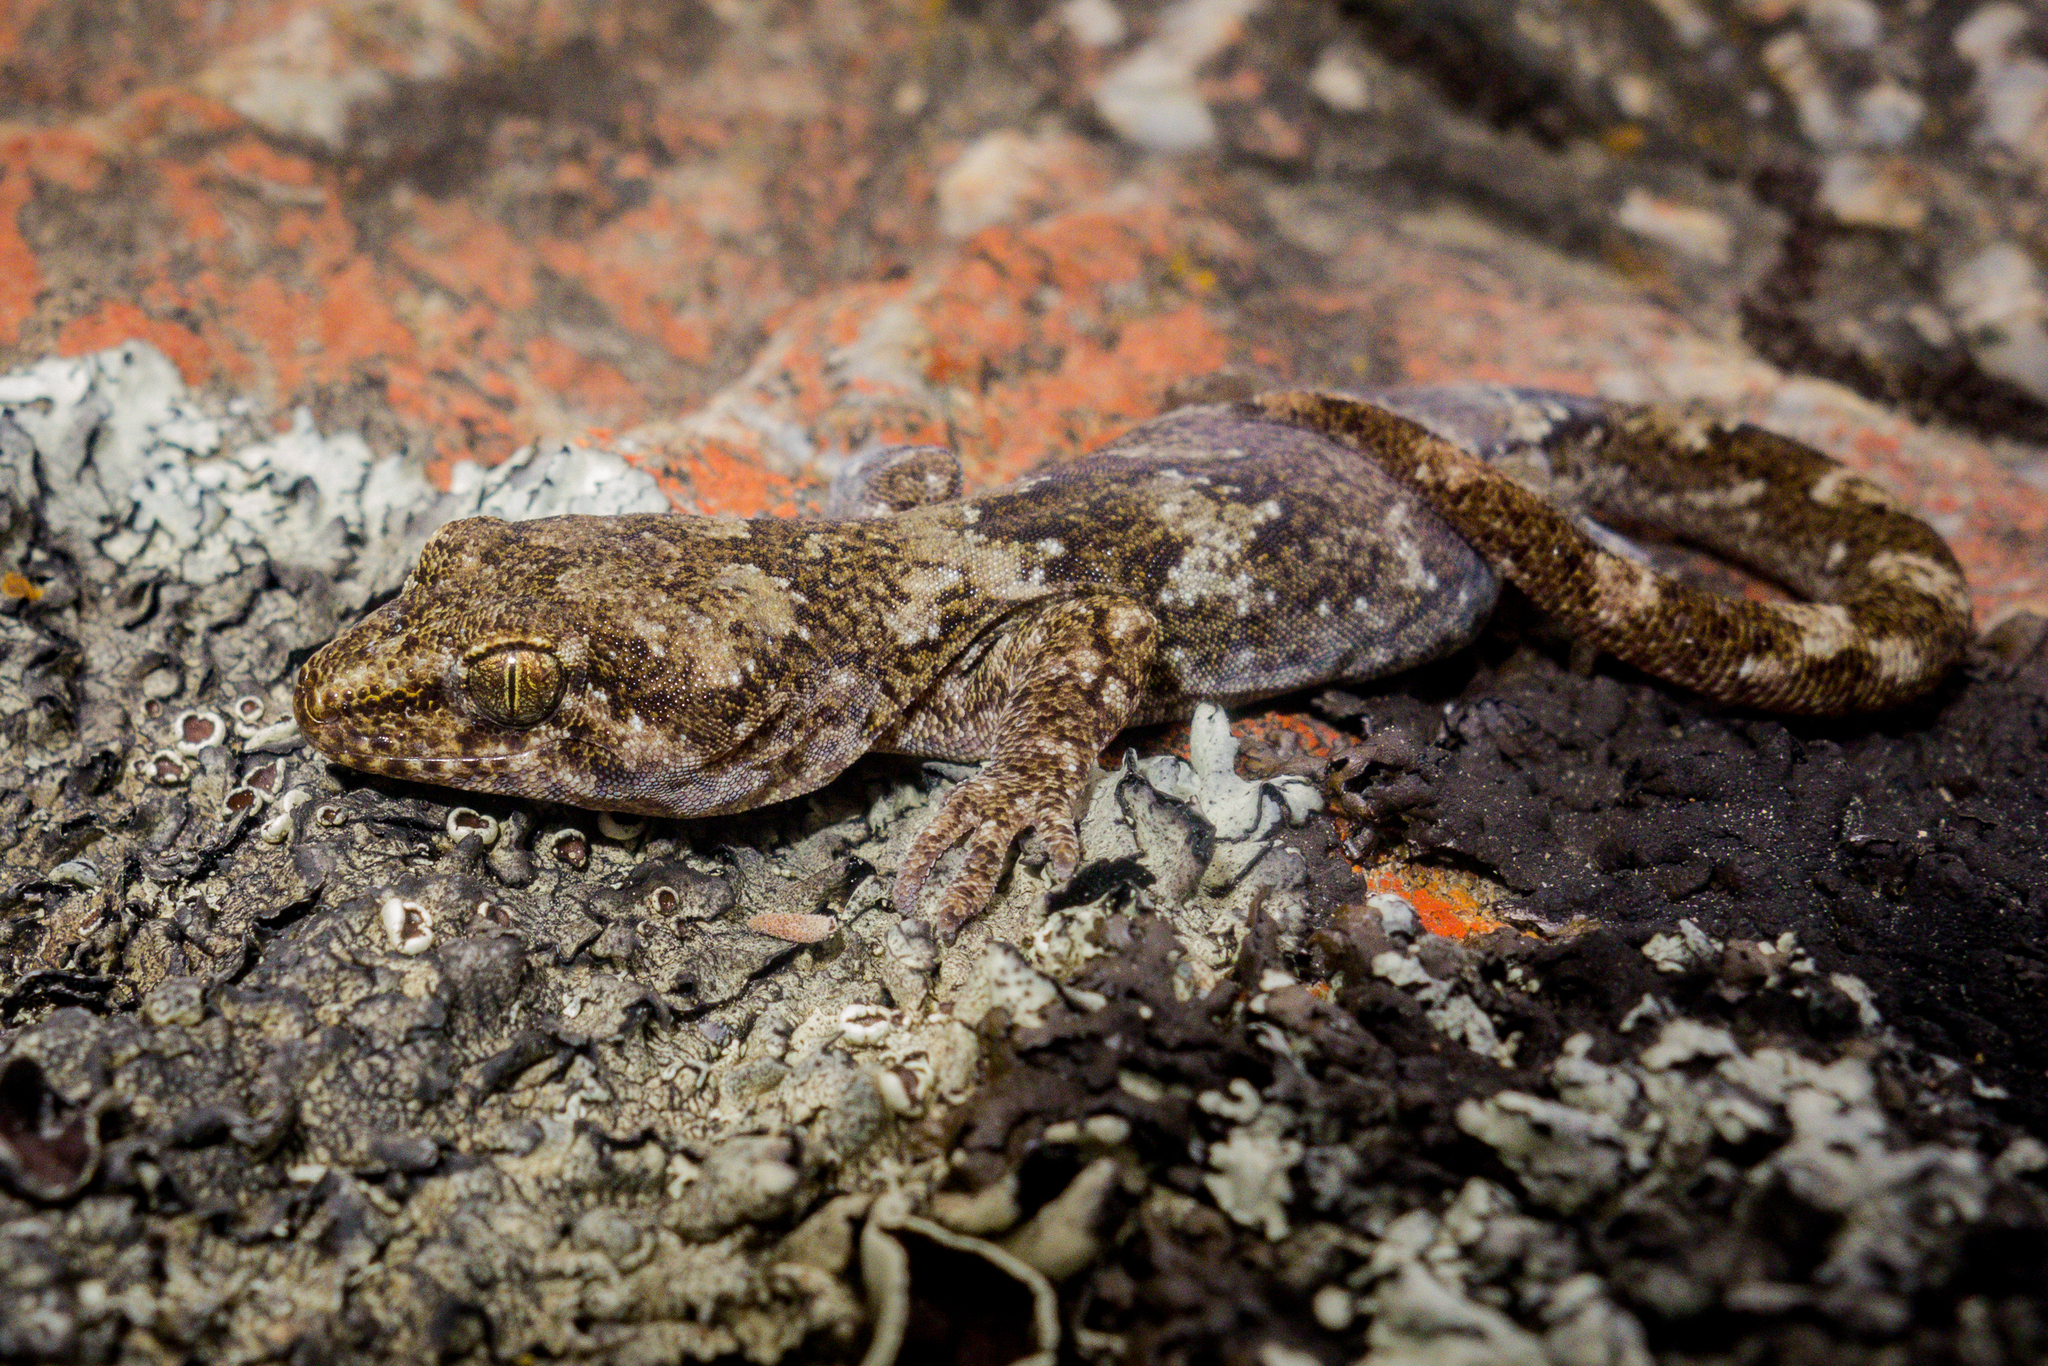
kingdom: Animalia
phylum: Chordata
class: Squamata
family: Diplodactylidae
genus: Woodworthia
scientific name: Woodworthia
